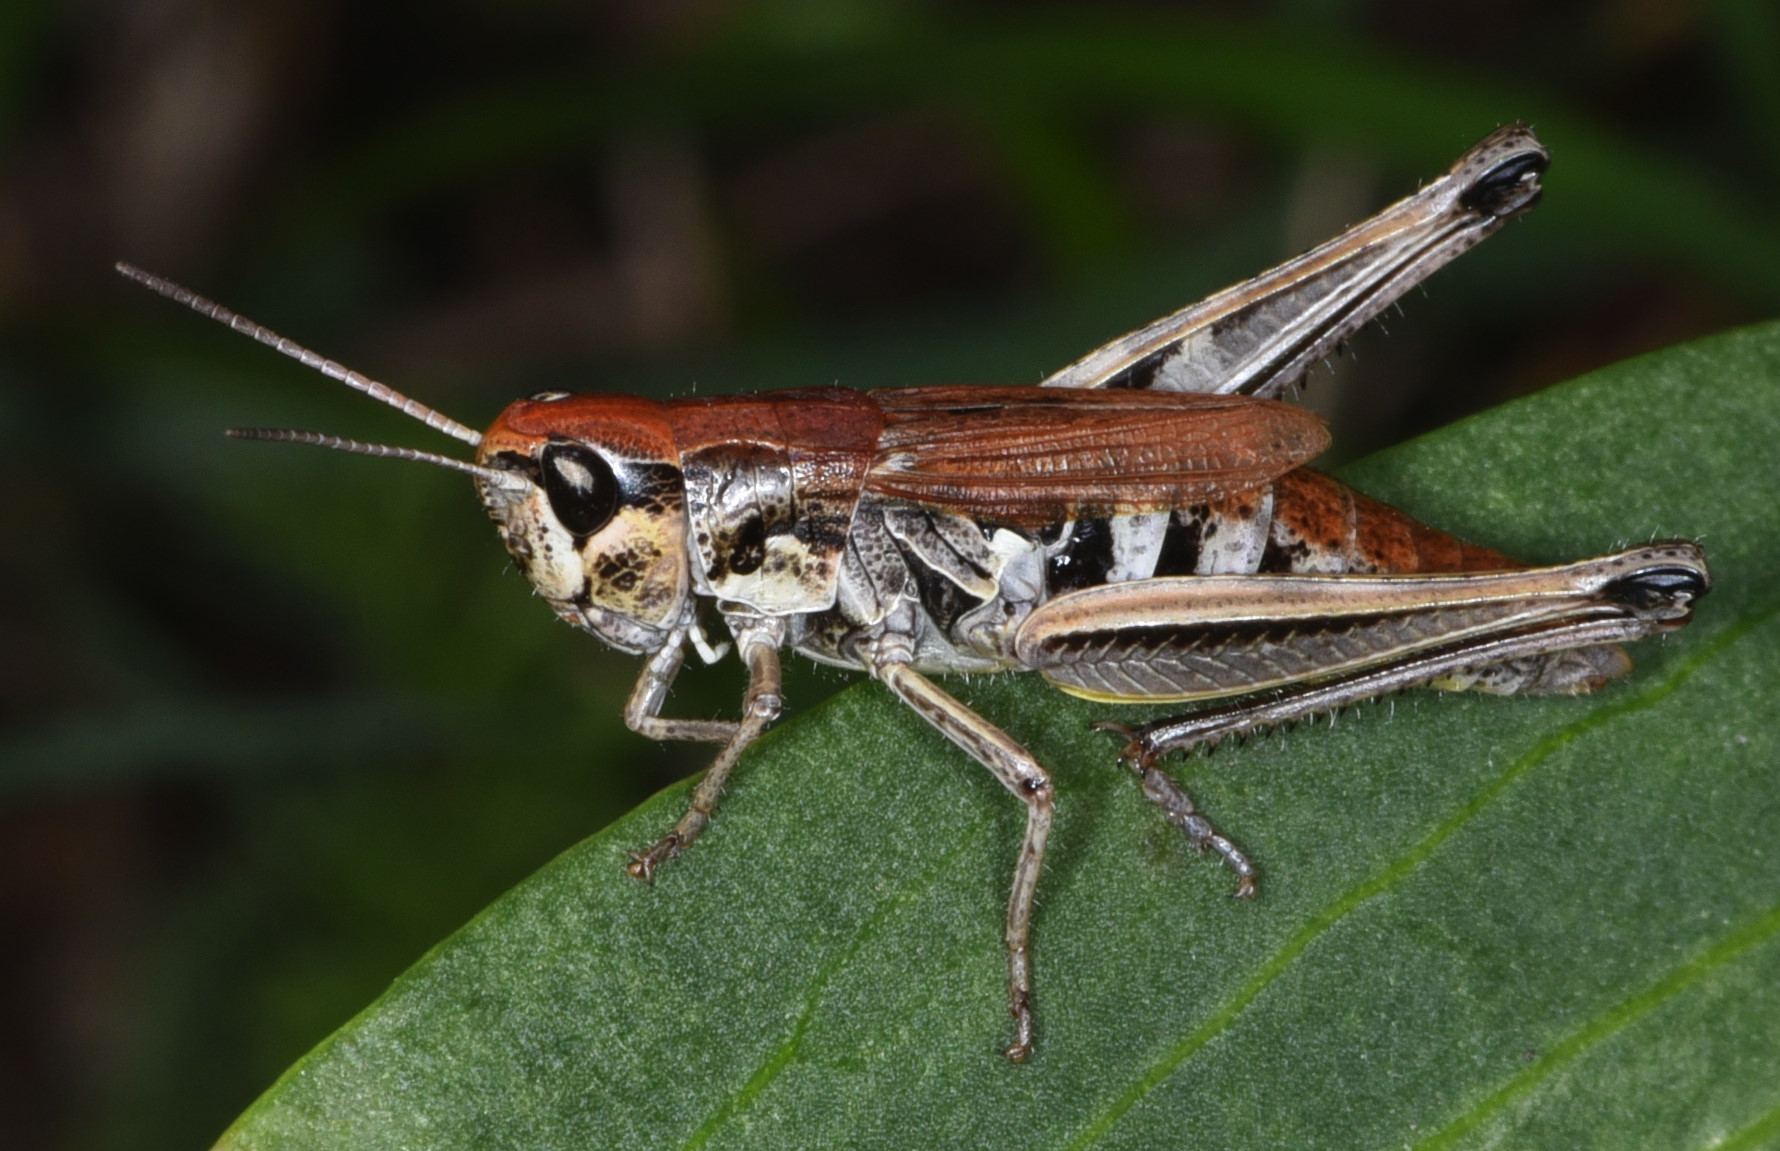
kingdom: Animalia
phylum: Arthropoda
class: Insecta
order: Orthoptera
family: Acrididae
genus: Pseudochorthippus
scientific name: Pseudochorthippus curtipennis
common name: Marsh meadow grasshopper
